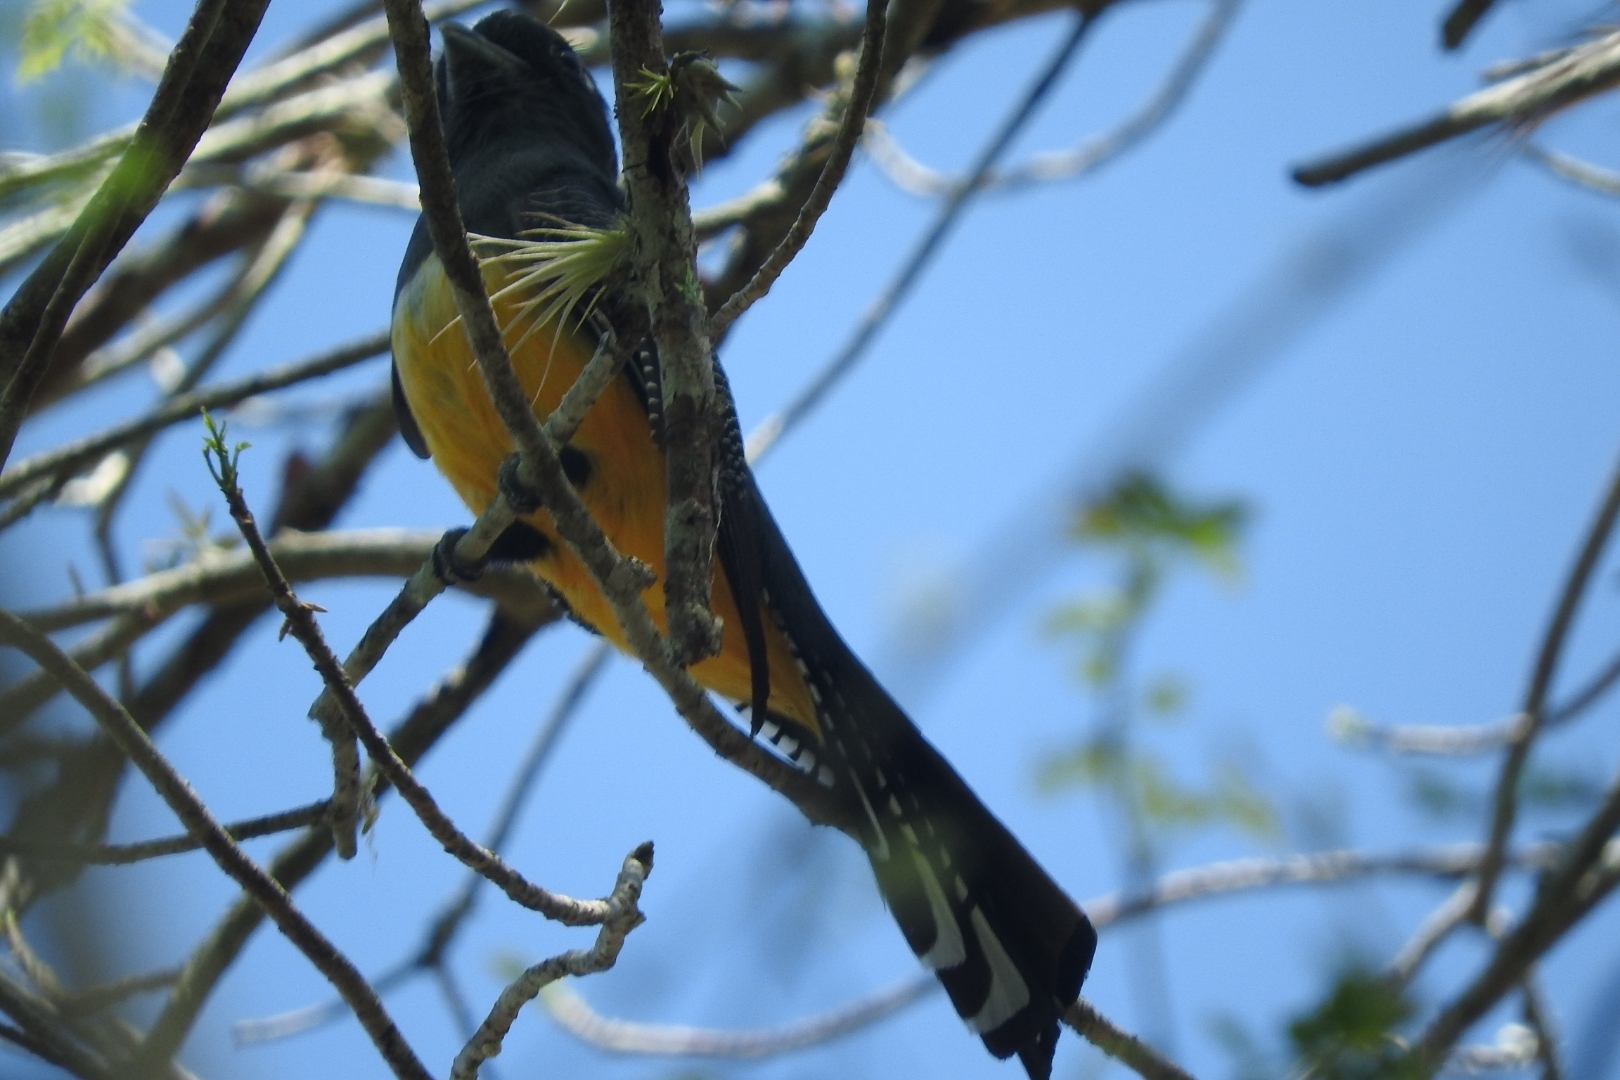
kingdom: Animalia
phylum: Chordata
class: Aves
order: Trogoniformes
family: Trogonidae
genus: Trogon
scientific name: Trogon caligatus
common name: Gartered trogon
